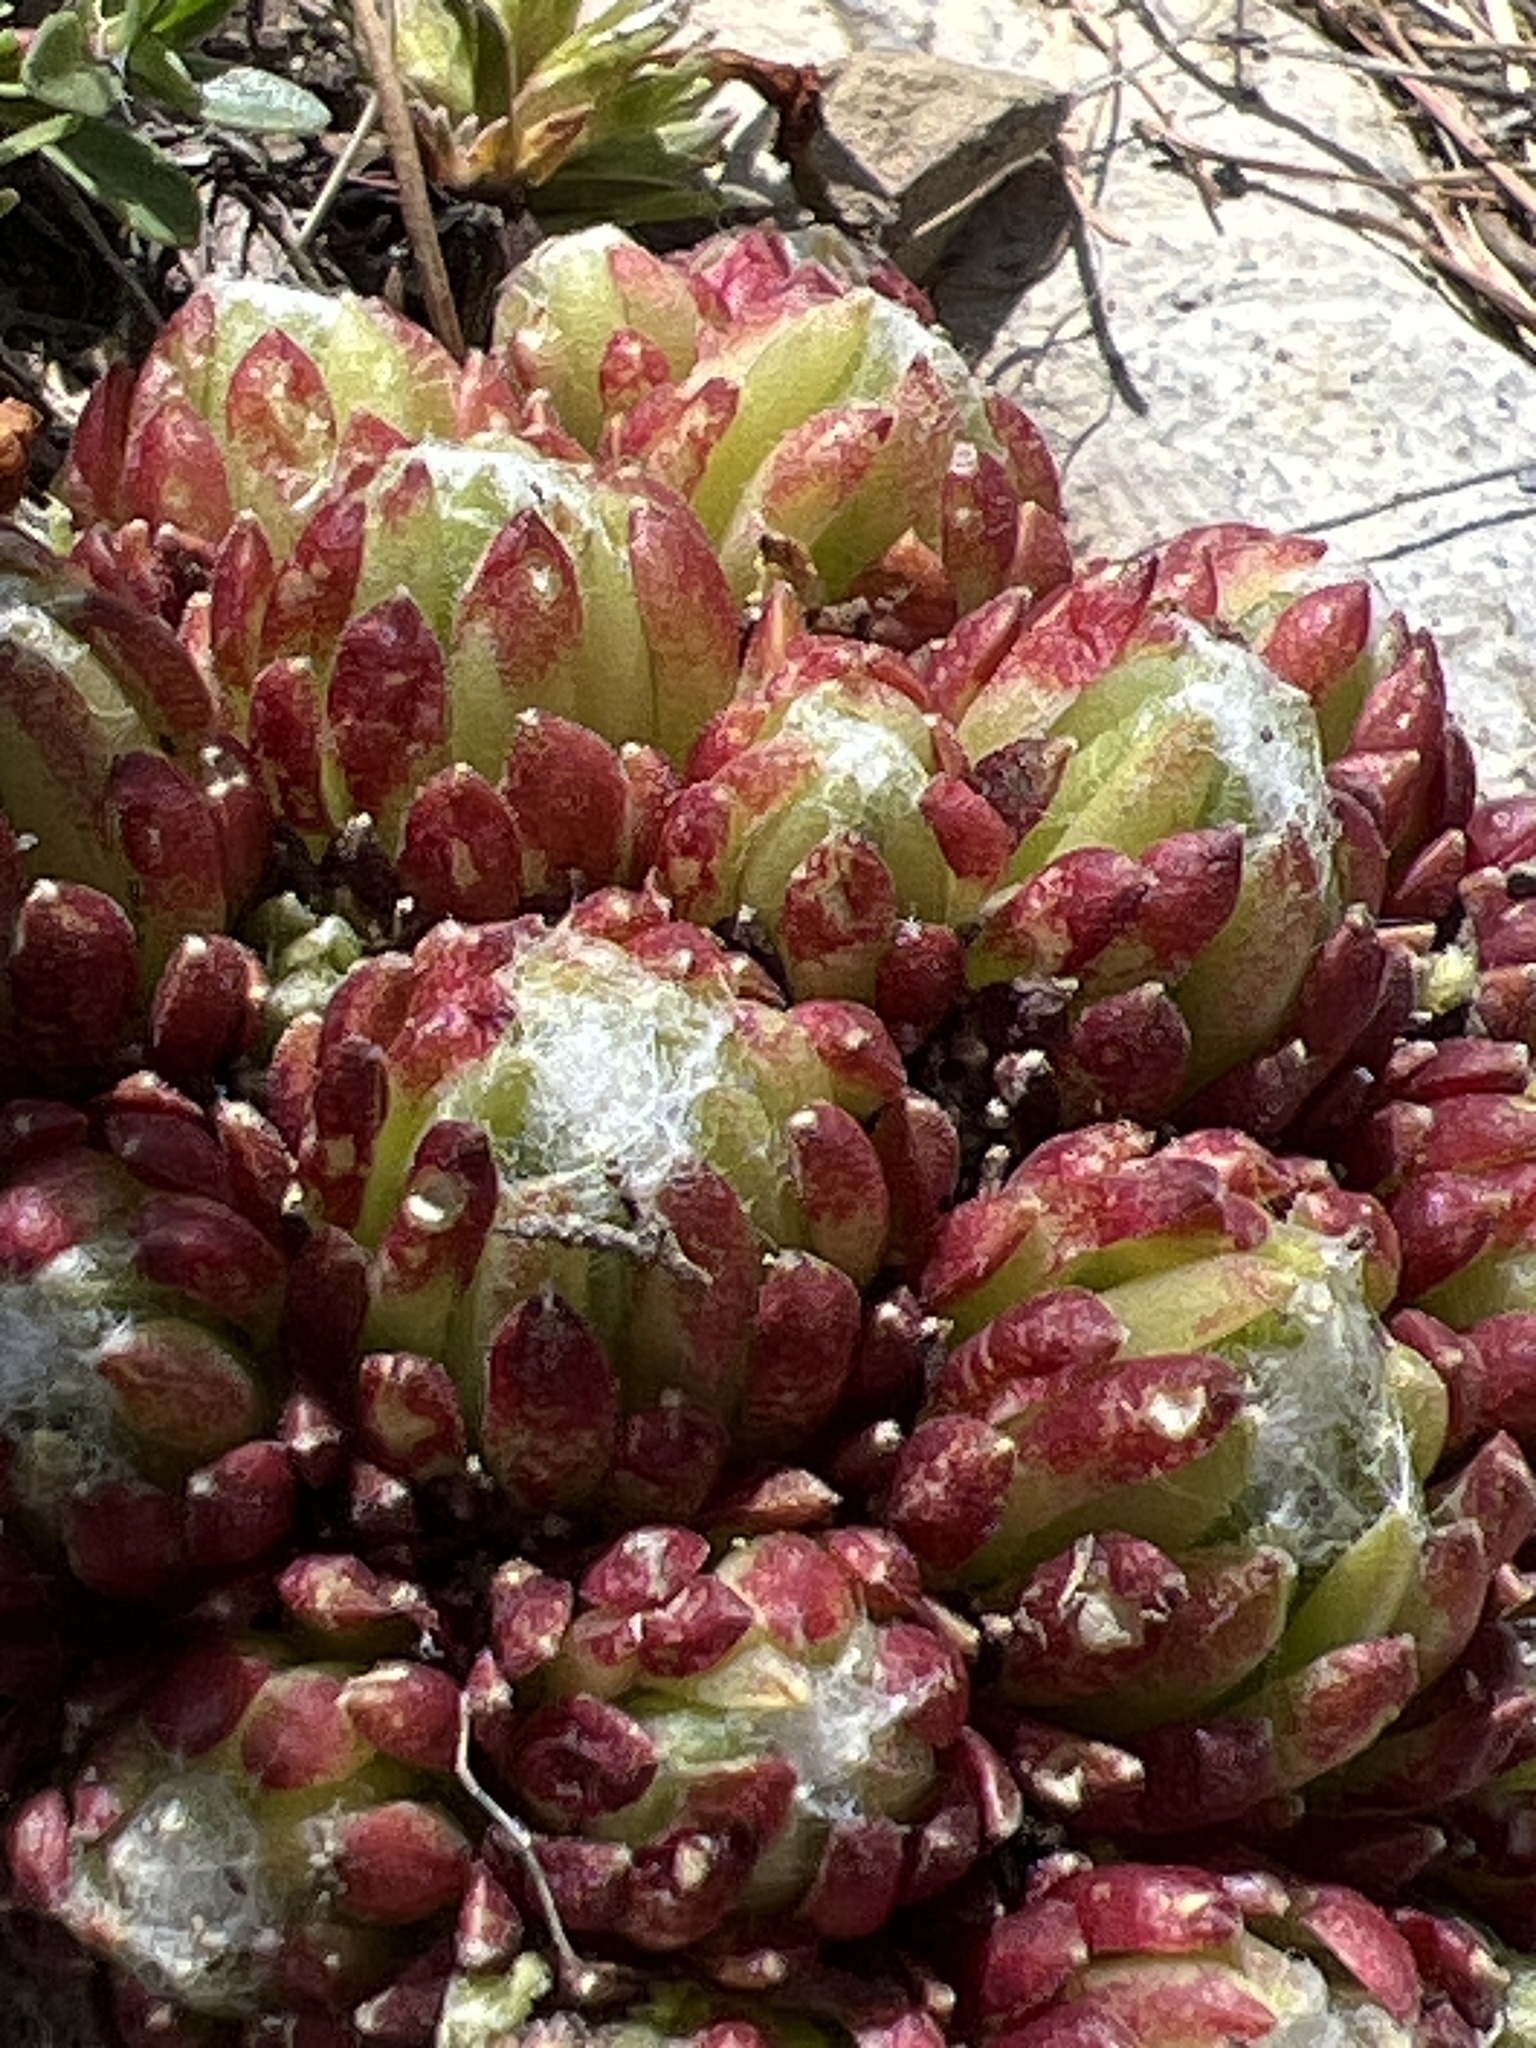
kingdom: Plantae
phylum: Tracheophyta
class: Magnoliopsida
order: Saxifragales
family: Crassulaceae
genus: Sempervivum
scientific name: Sempervivum arachnoideum
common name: Cobweb house-leek
